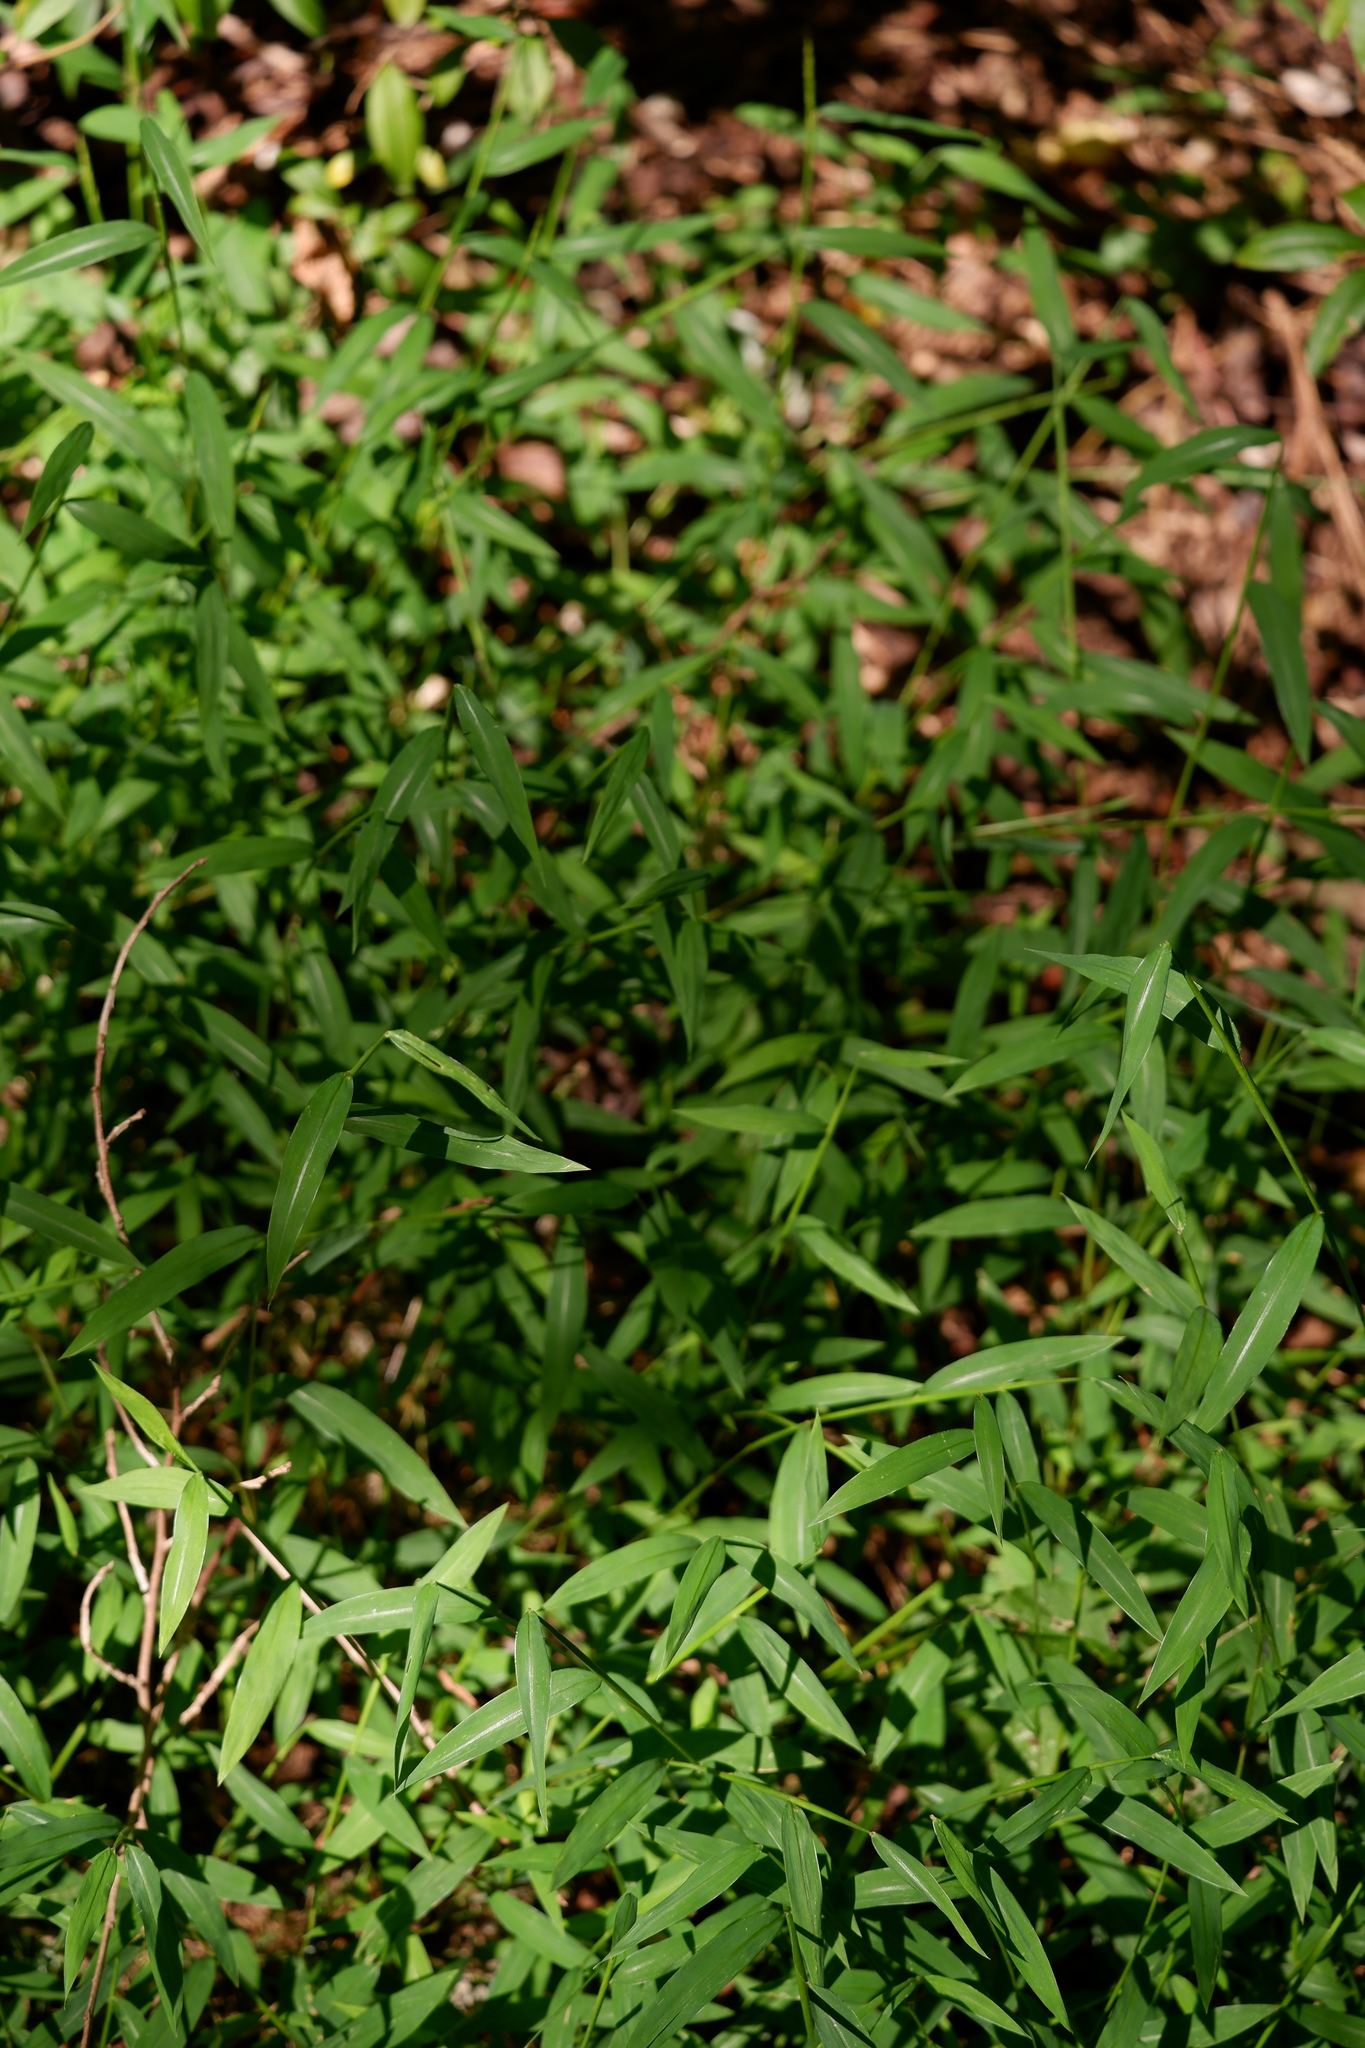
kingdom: Plantae
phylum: Tracheophyta
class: Liliopsida
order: Poales
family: Poaceae
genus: Microstegium
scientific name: Microstegium vimineum
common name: Japanese stiltgrass
